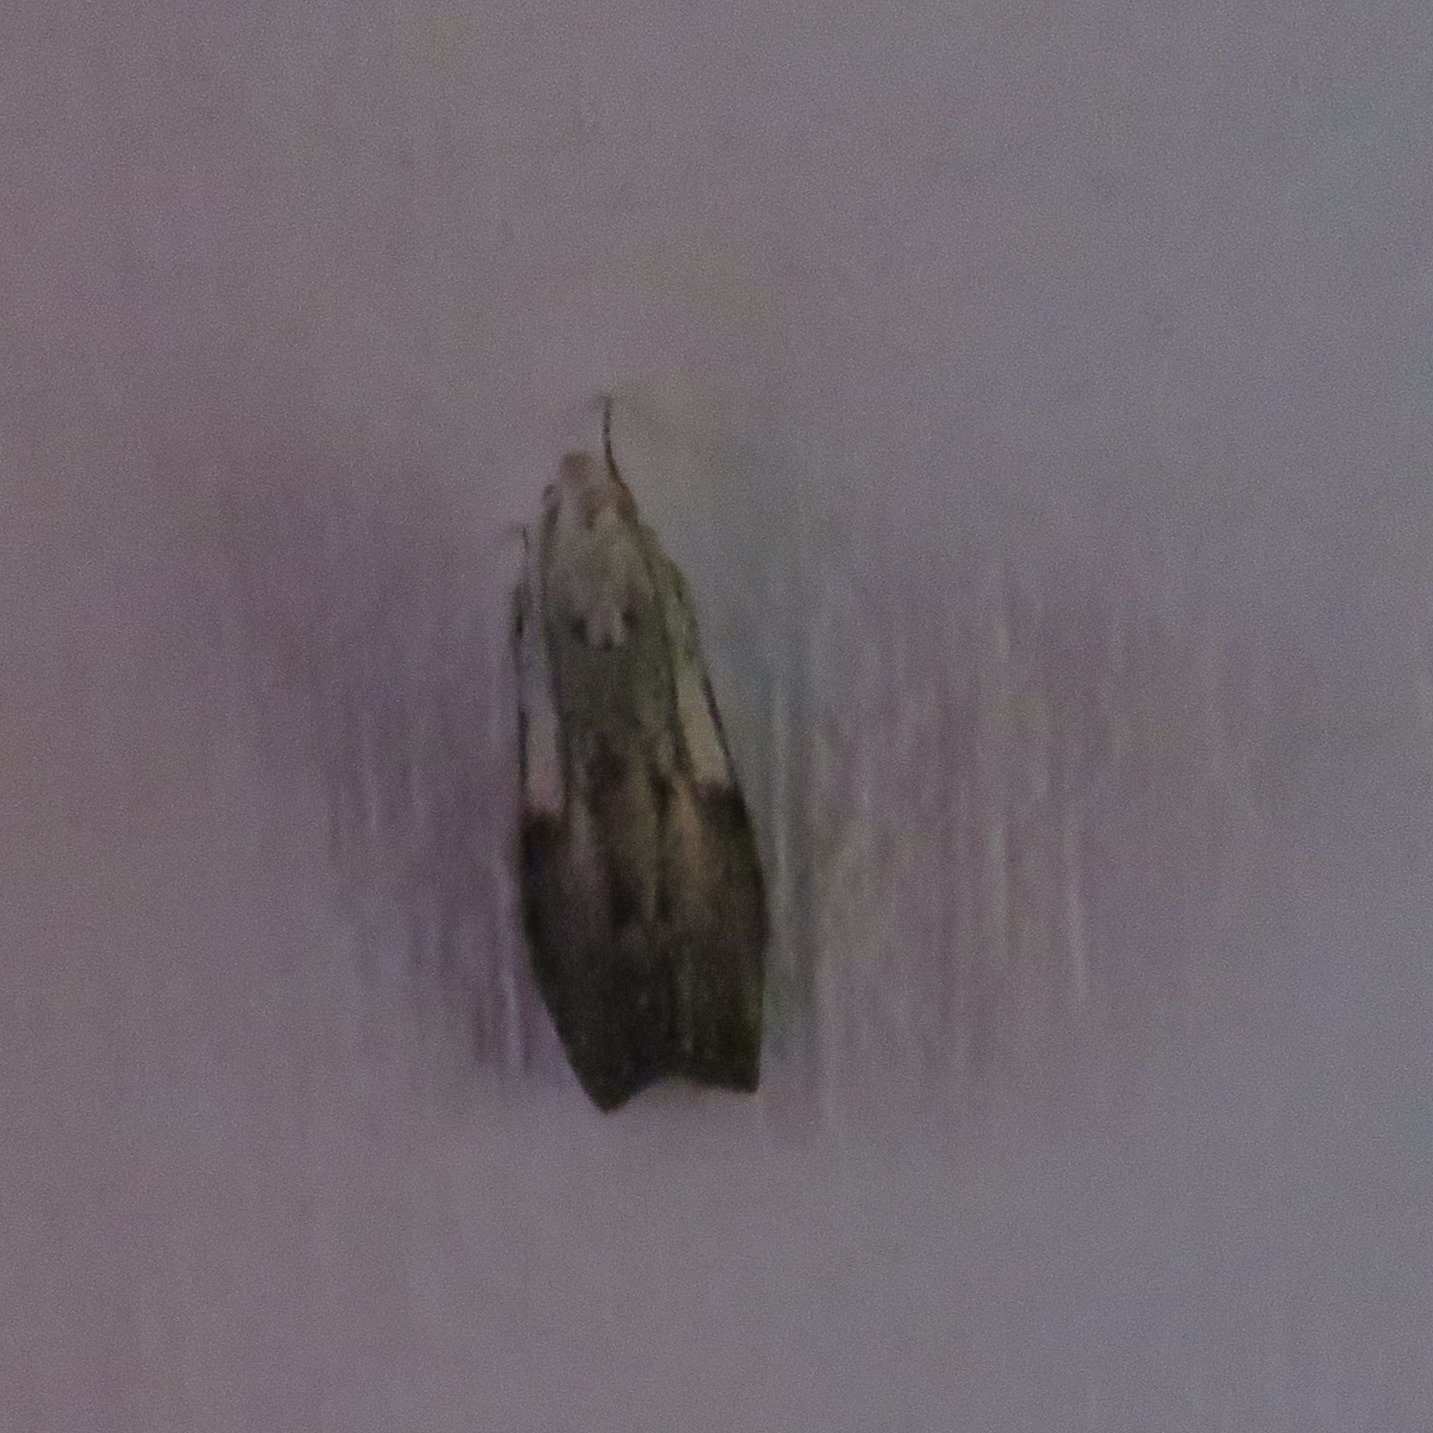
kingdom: Animalia
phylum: Arthropoda
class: Insecta
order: Lepidoptera
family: Pyralidae
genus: Aphomia
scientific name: Aphomia sociella
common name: Bee moth
